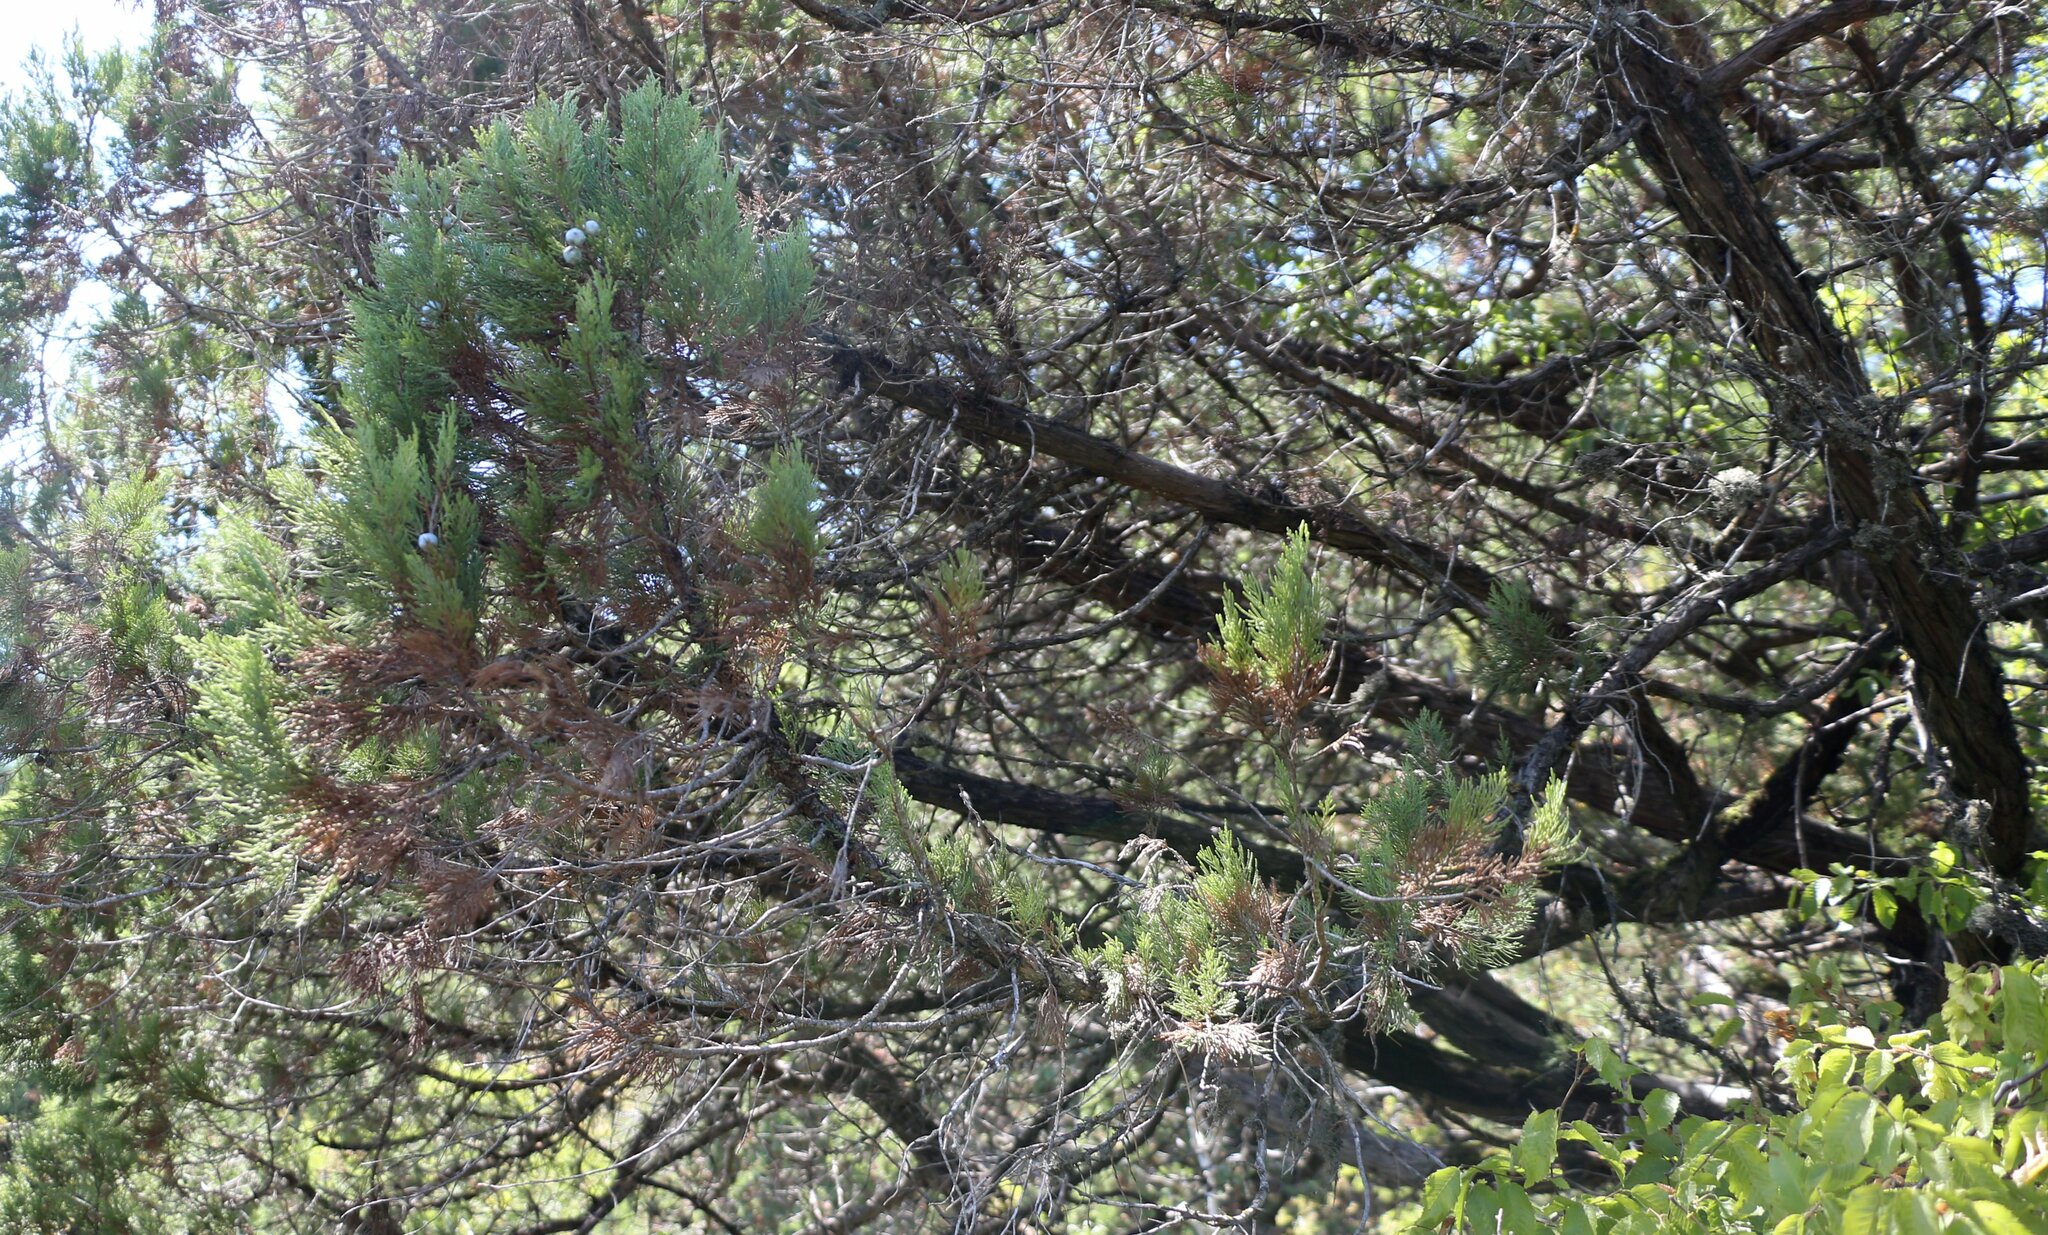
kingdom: Plantae
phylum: Tracheophyta
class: Pinopsida
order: Pinales
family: Cupressaceae
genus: Juniperus
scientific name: Juniperus excelsa
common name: Crimean juniper
